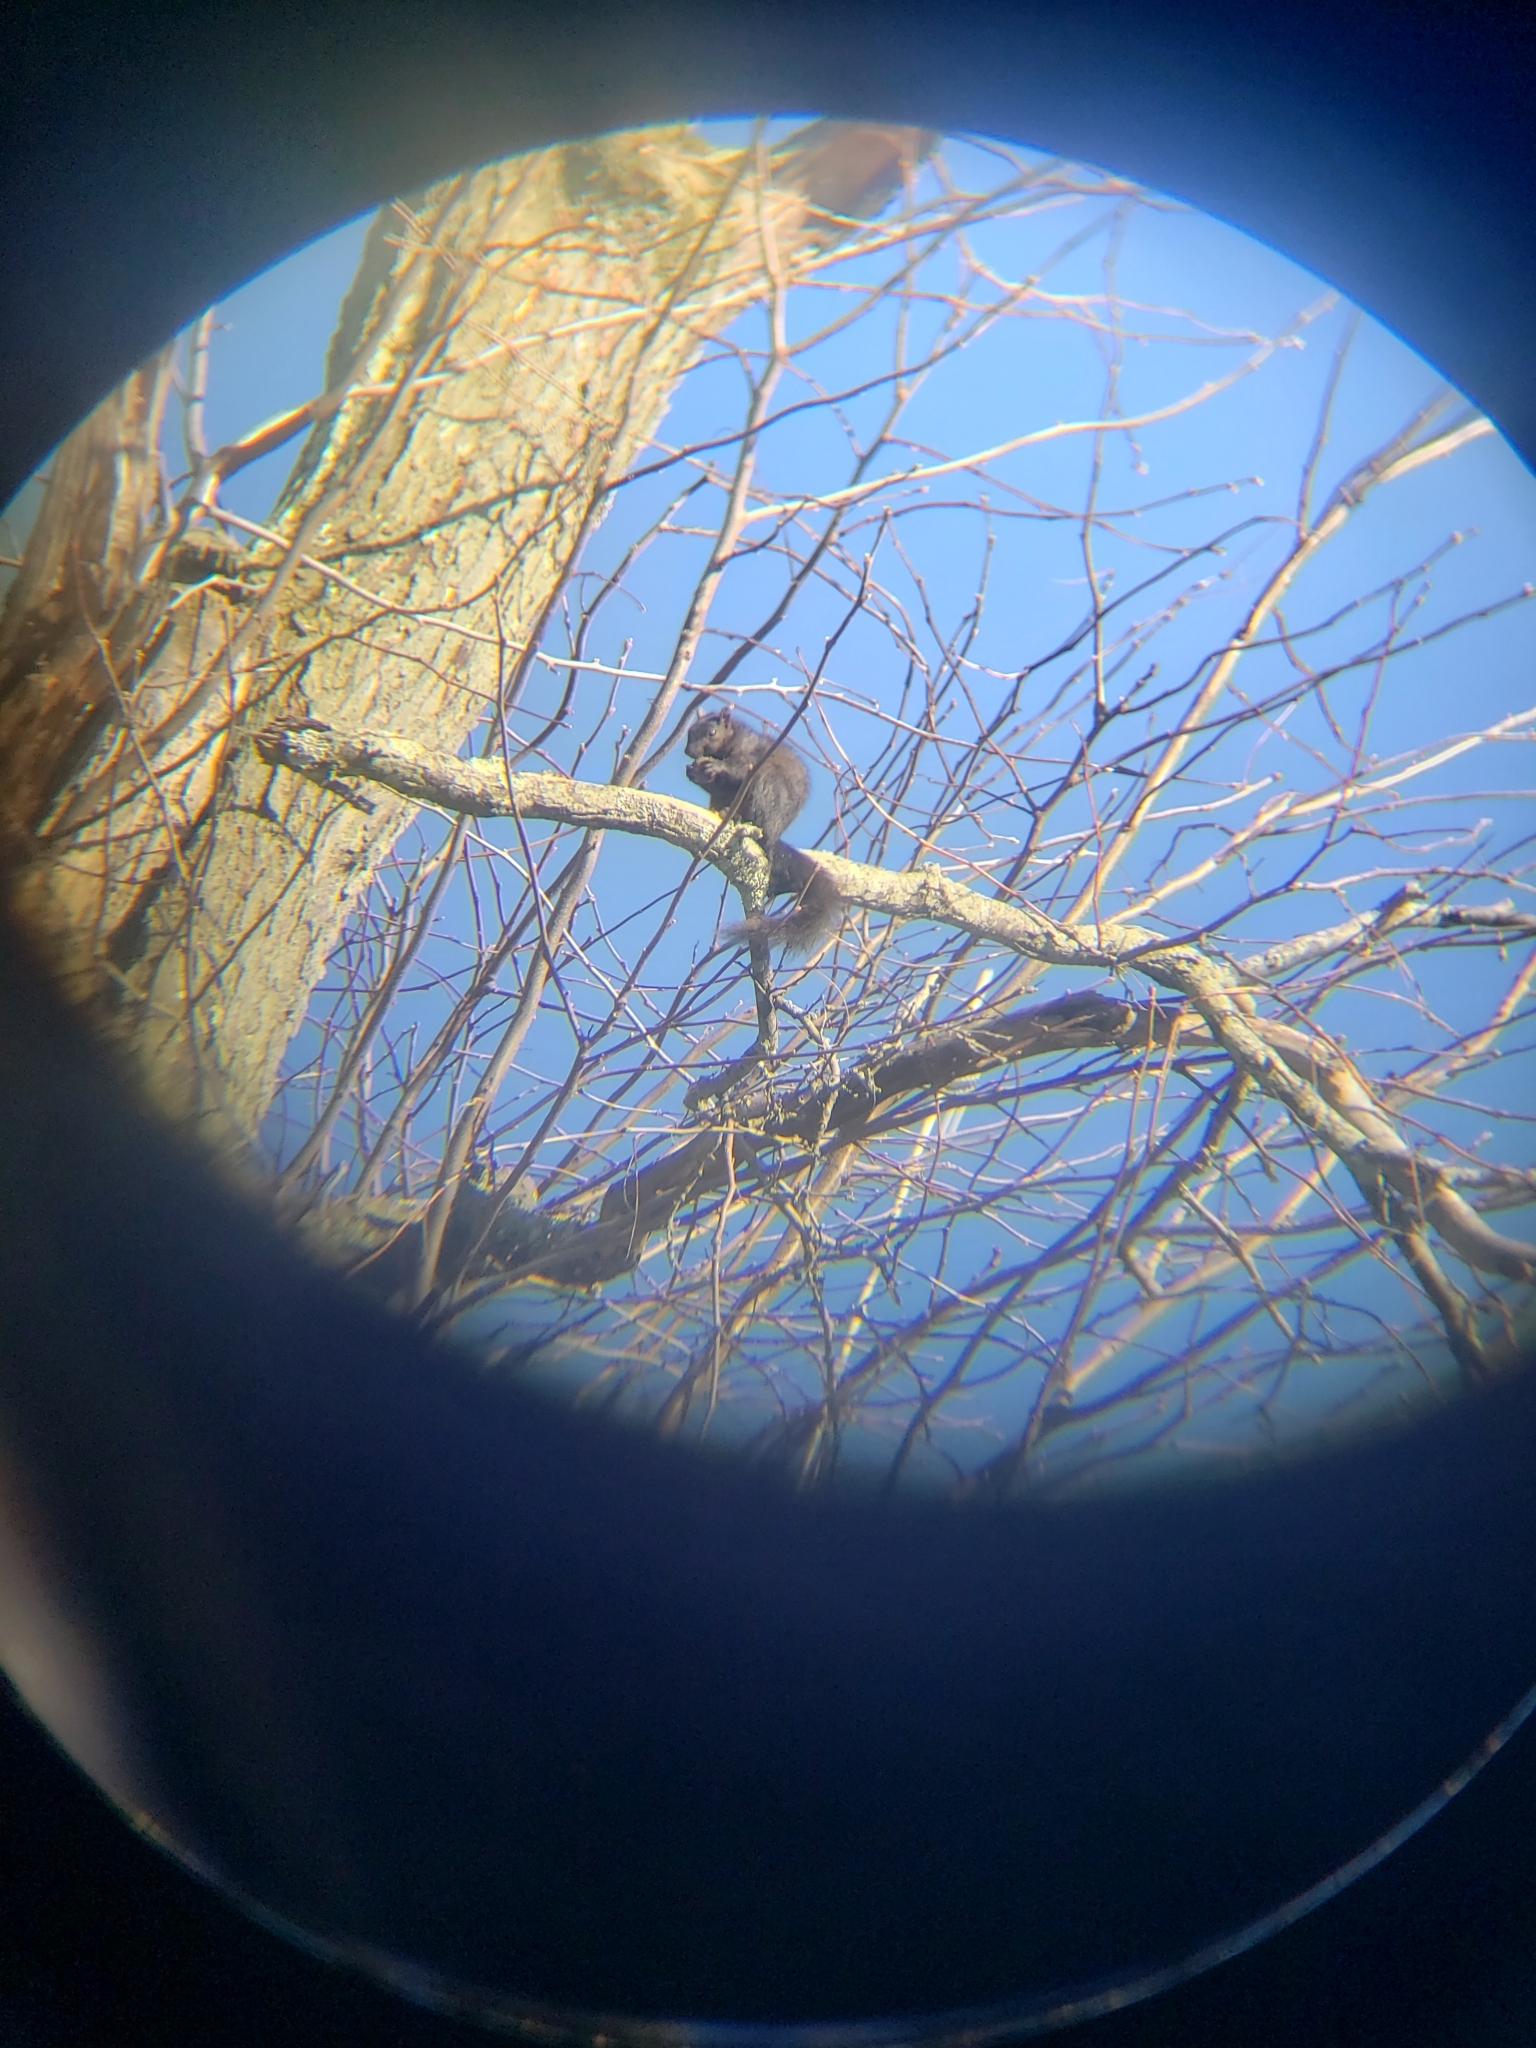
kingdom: Animalia
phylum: Chordata
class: Mammalia
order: Rodentia
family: Sciuridae
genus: Sciurus
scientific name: Sciurus carolinensis
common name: Eastern gray squirrel
